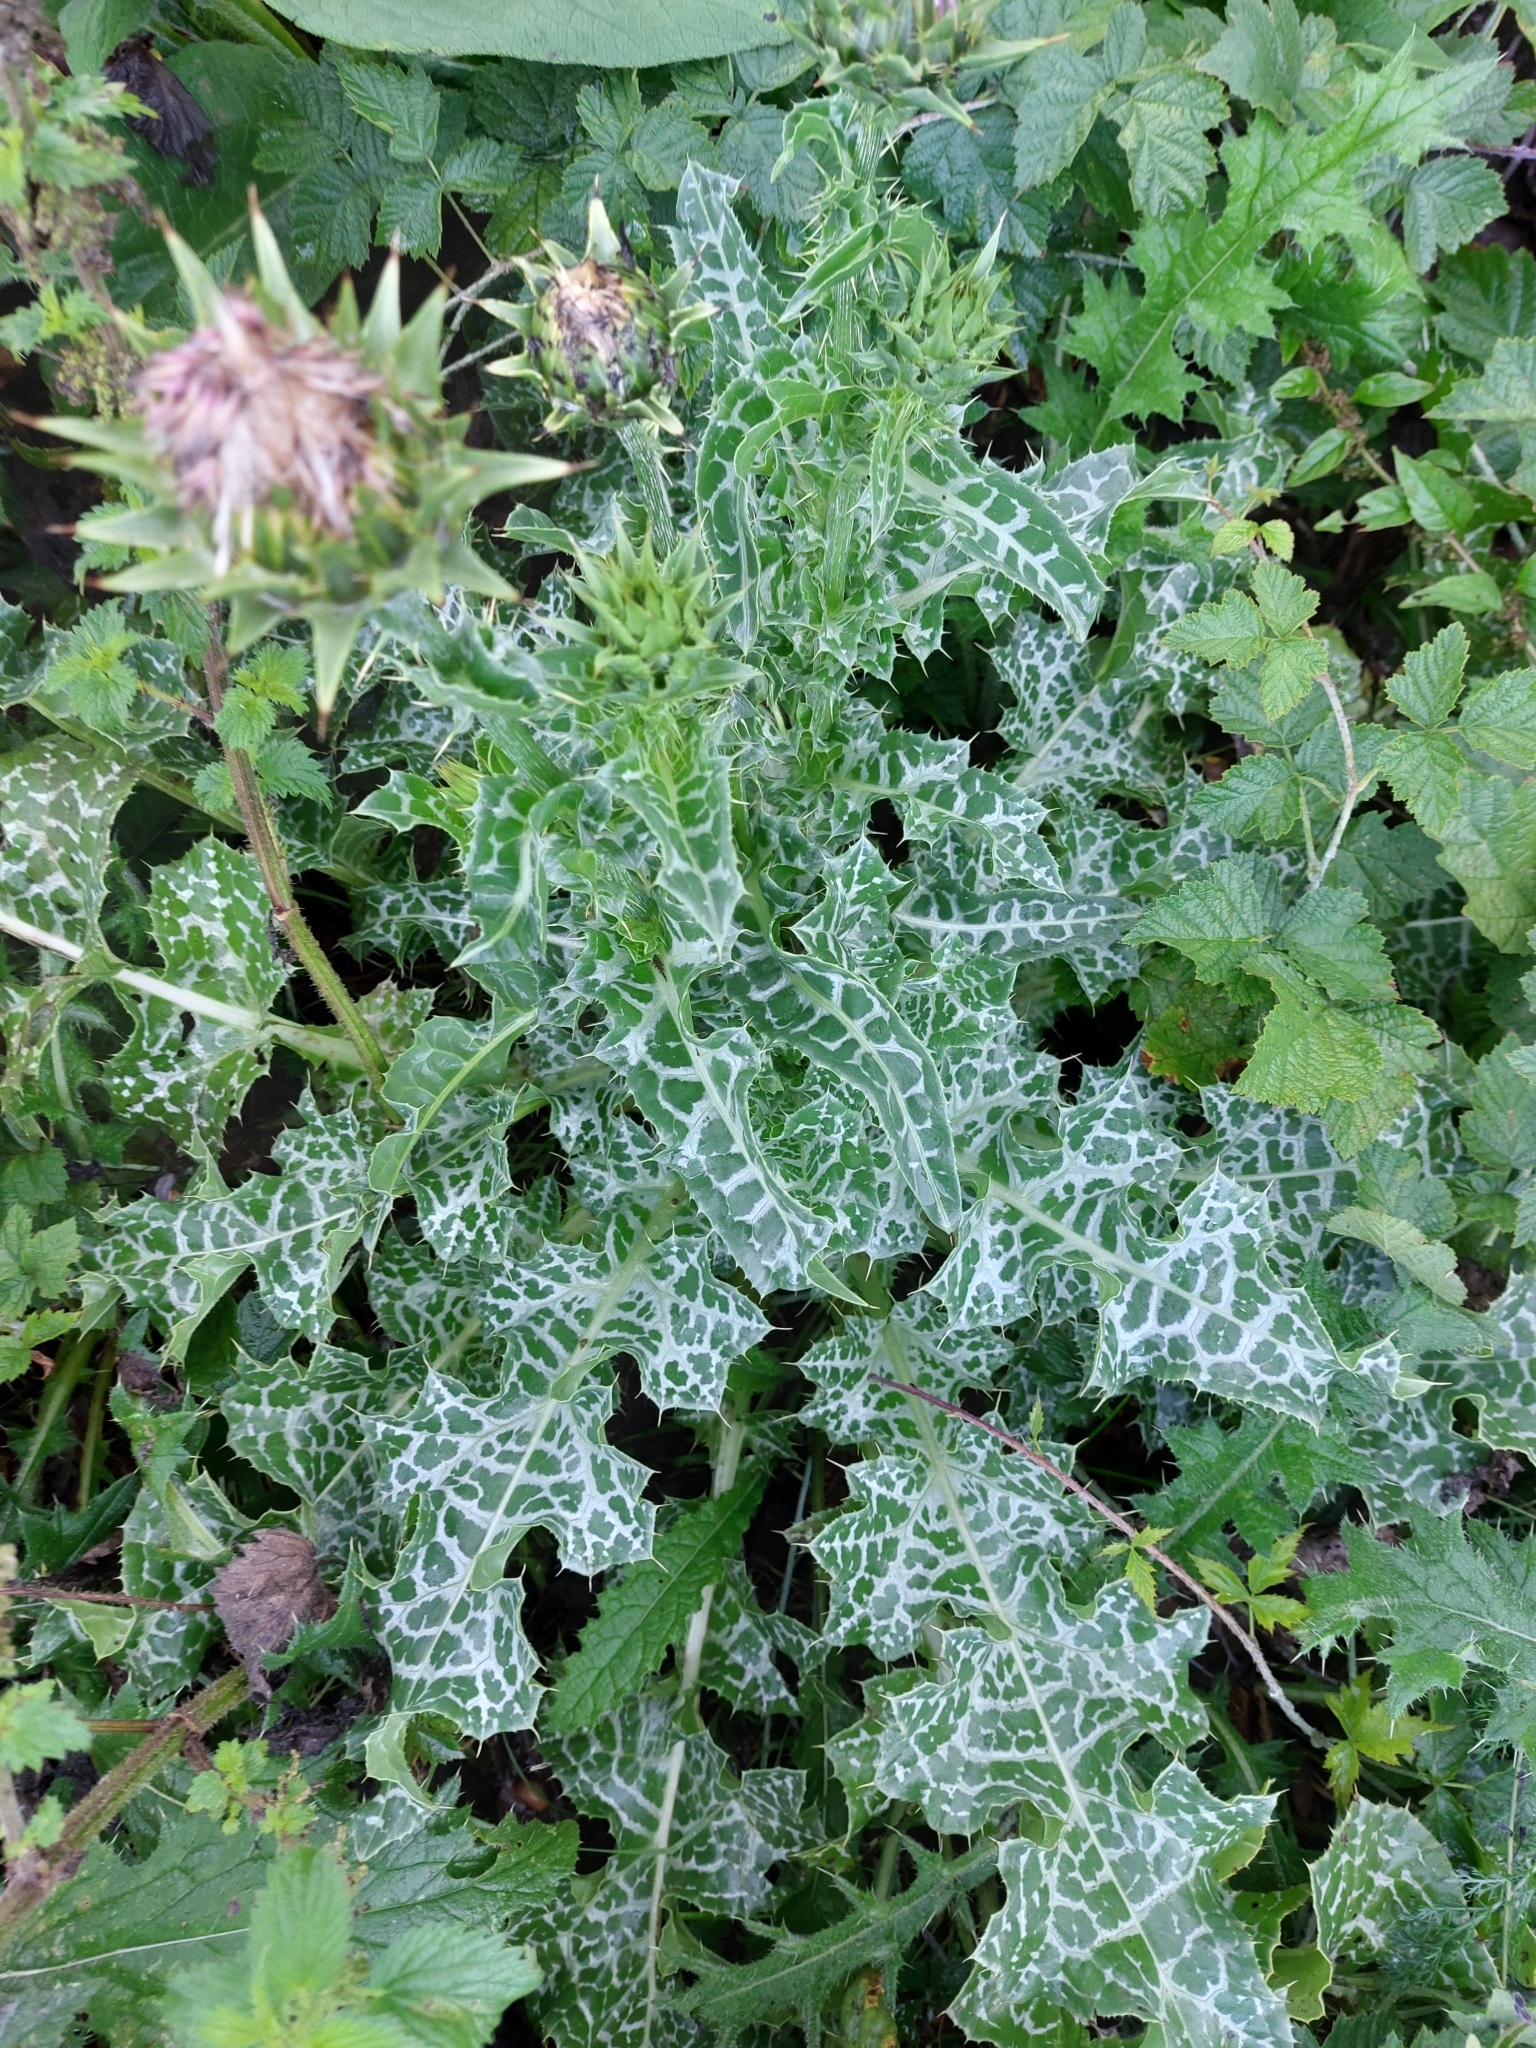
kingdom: Plantae
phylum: Tracheophyta
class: Magnoliopsida
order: Asterales
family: Asteraceae
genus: Silybum
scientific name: Silybum marianum
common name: Milk thistle
